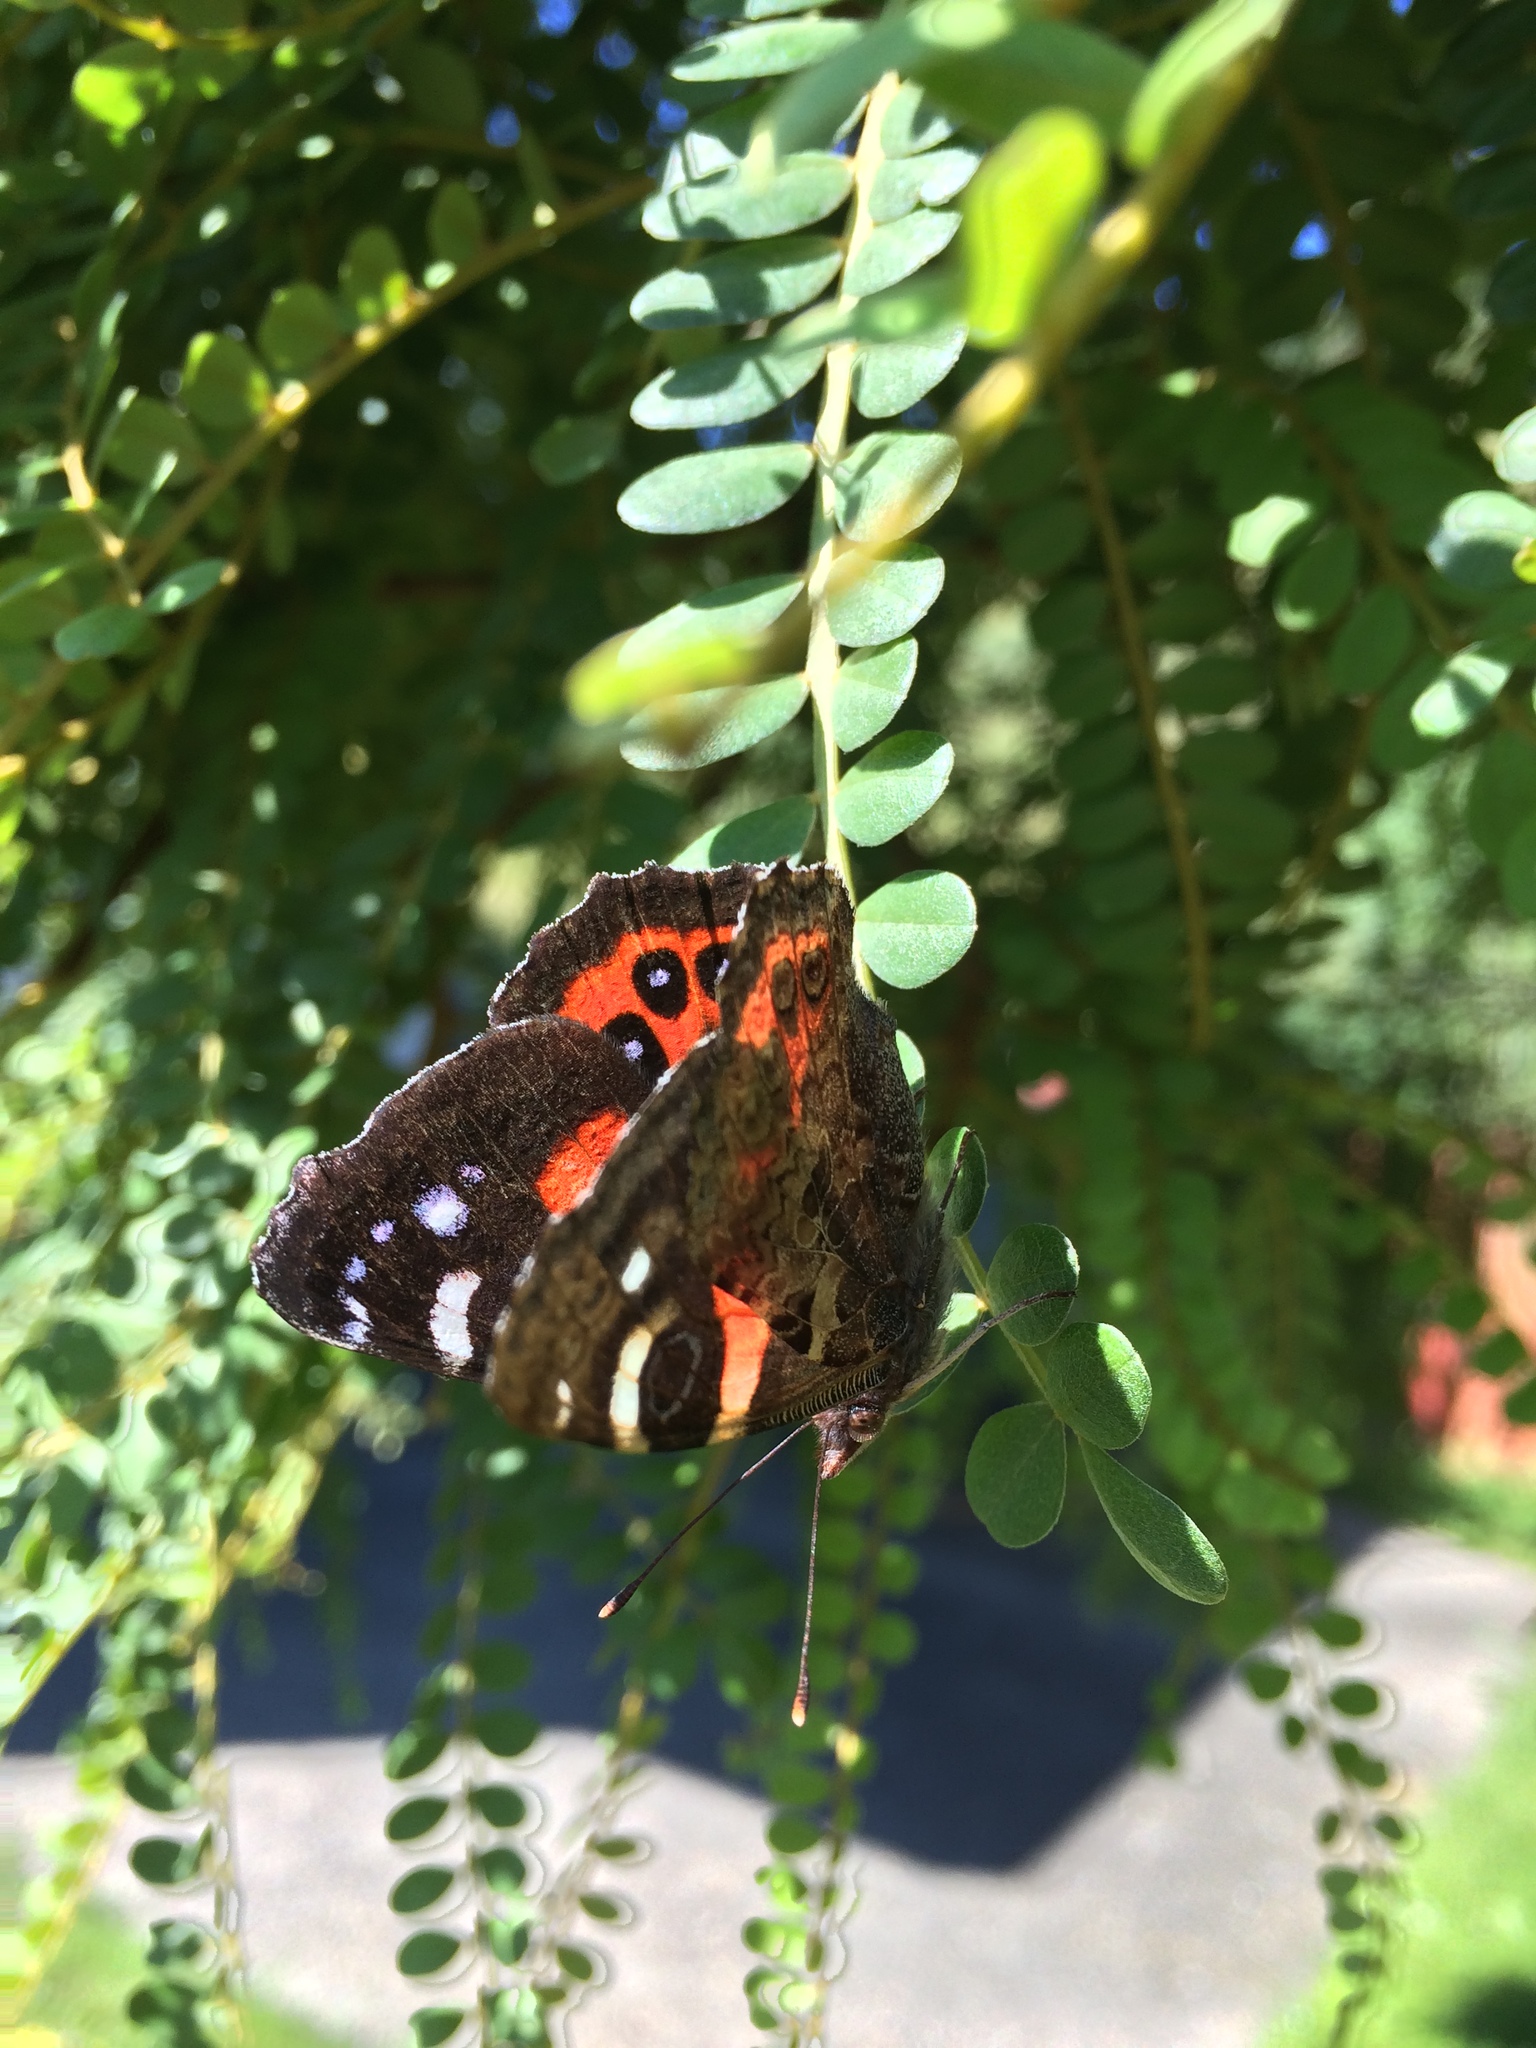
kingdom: Animalia
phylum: Arthropoda
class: Insecta
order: Lepidoptera
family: Nymphalidae
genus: Vanessa
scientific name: Vanessa gonerilla
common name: New zealand red admiral
